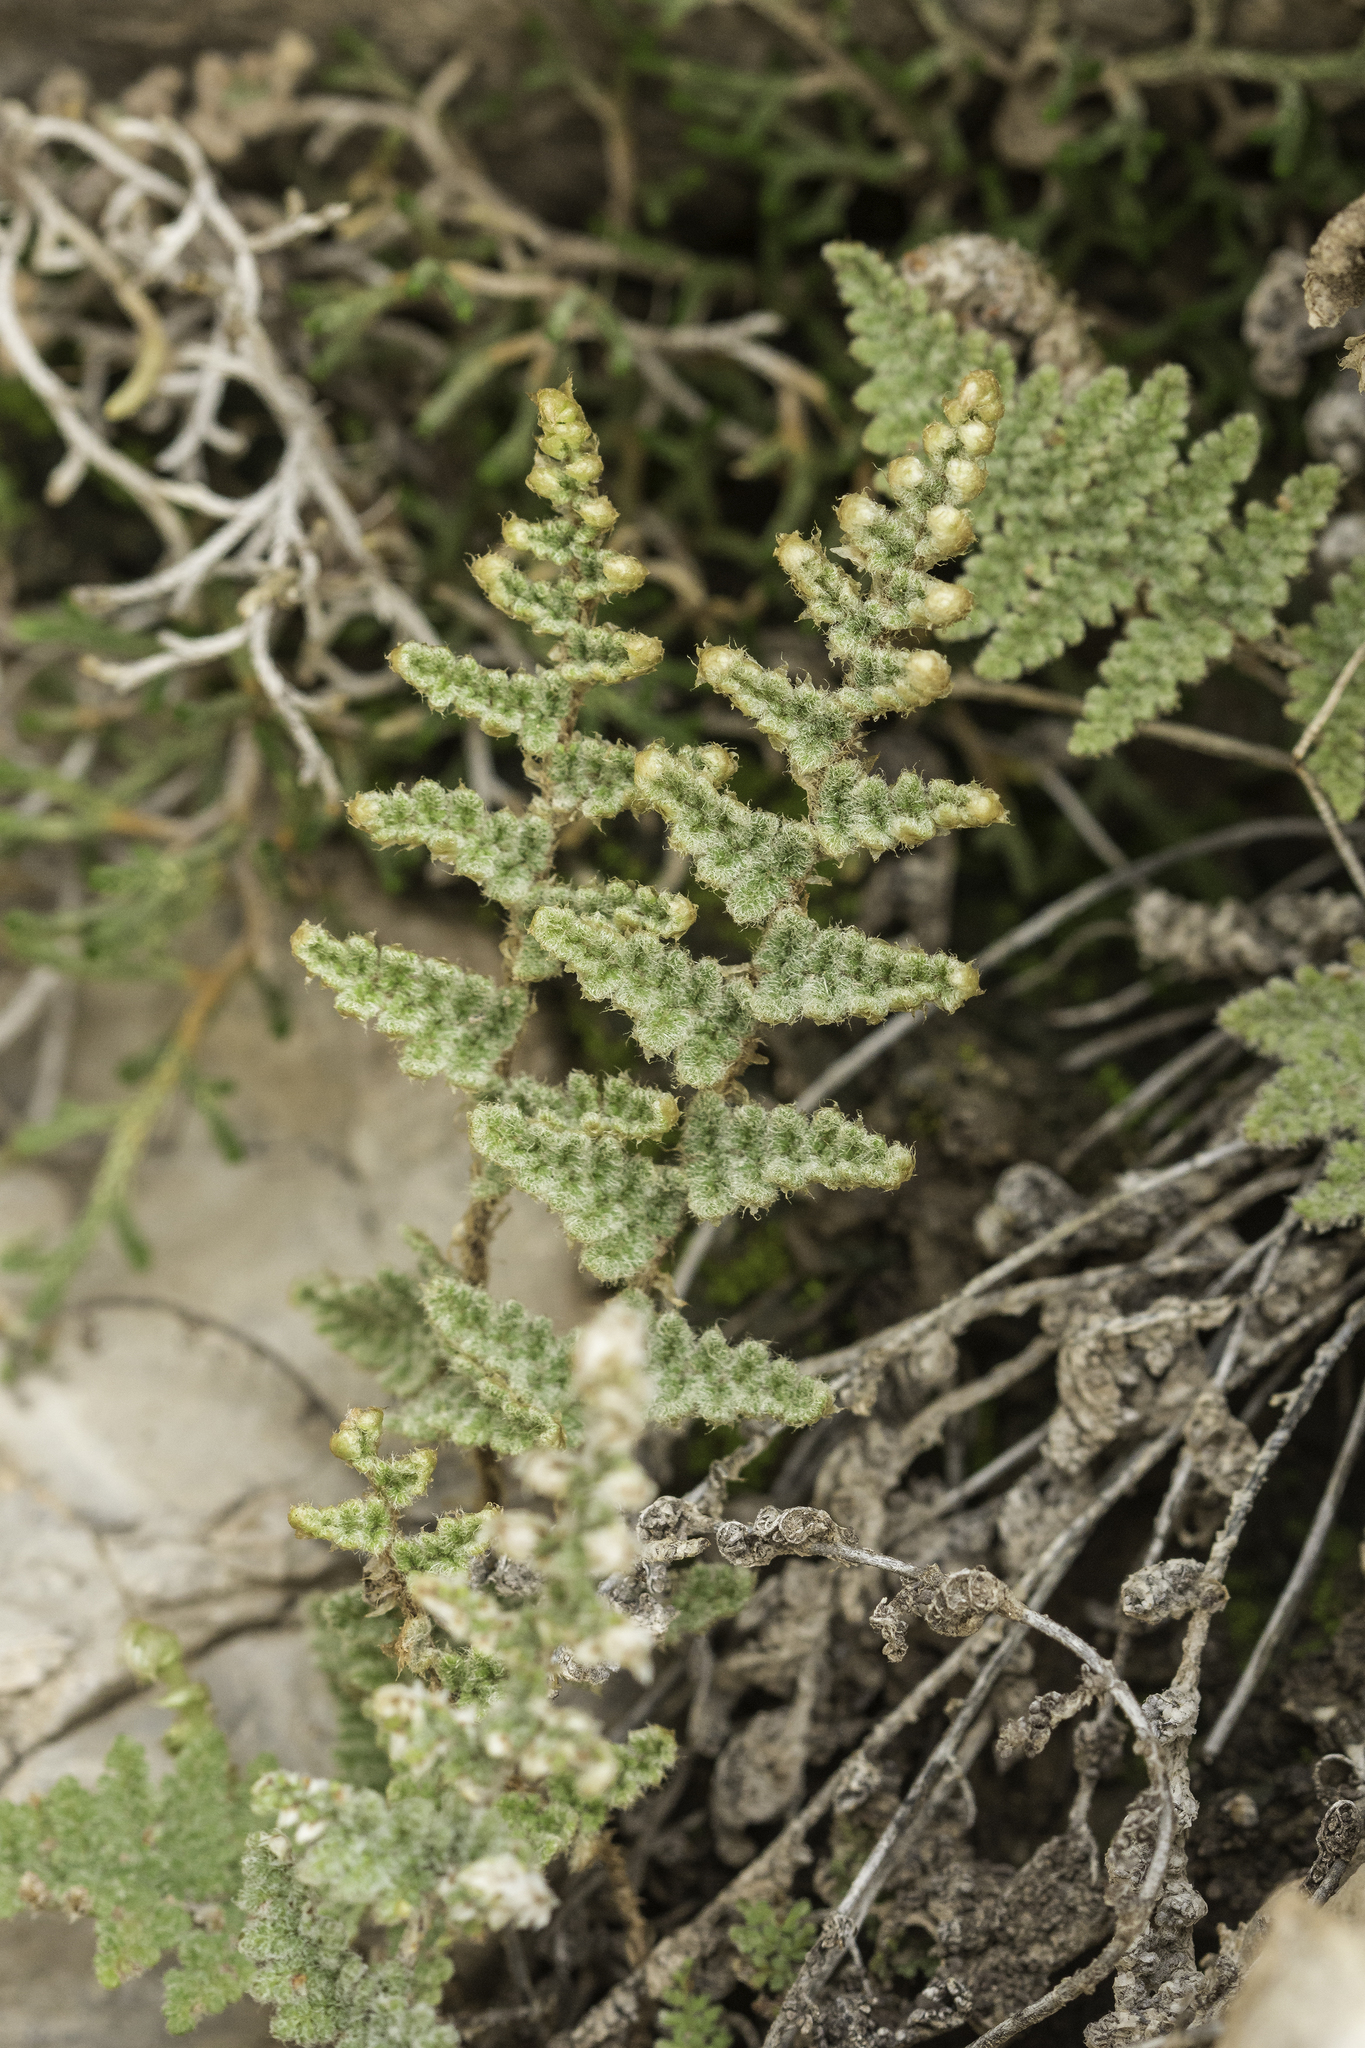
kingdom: Plantae
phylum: Tracheophyta
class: Polypodiopsida
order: Polypodiales
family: Pteridaceae
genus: Myriopteris
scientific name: Myriopteris windhamii
